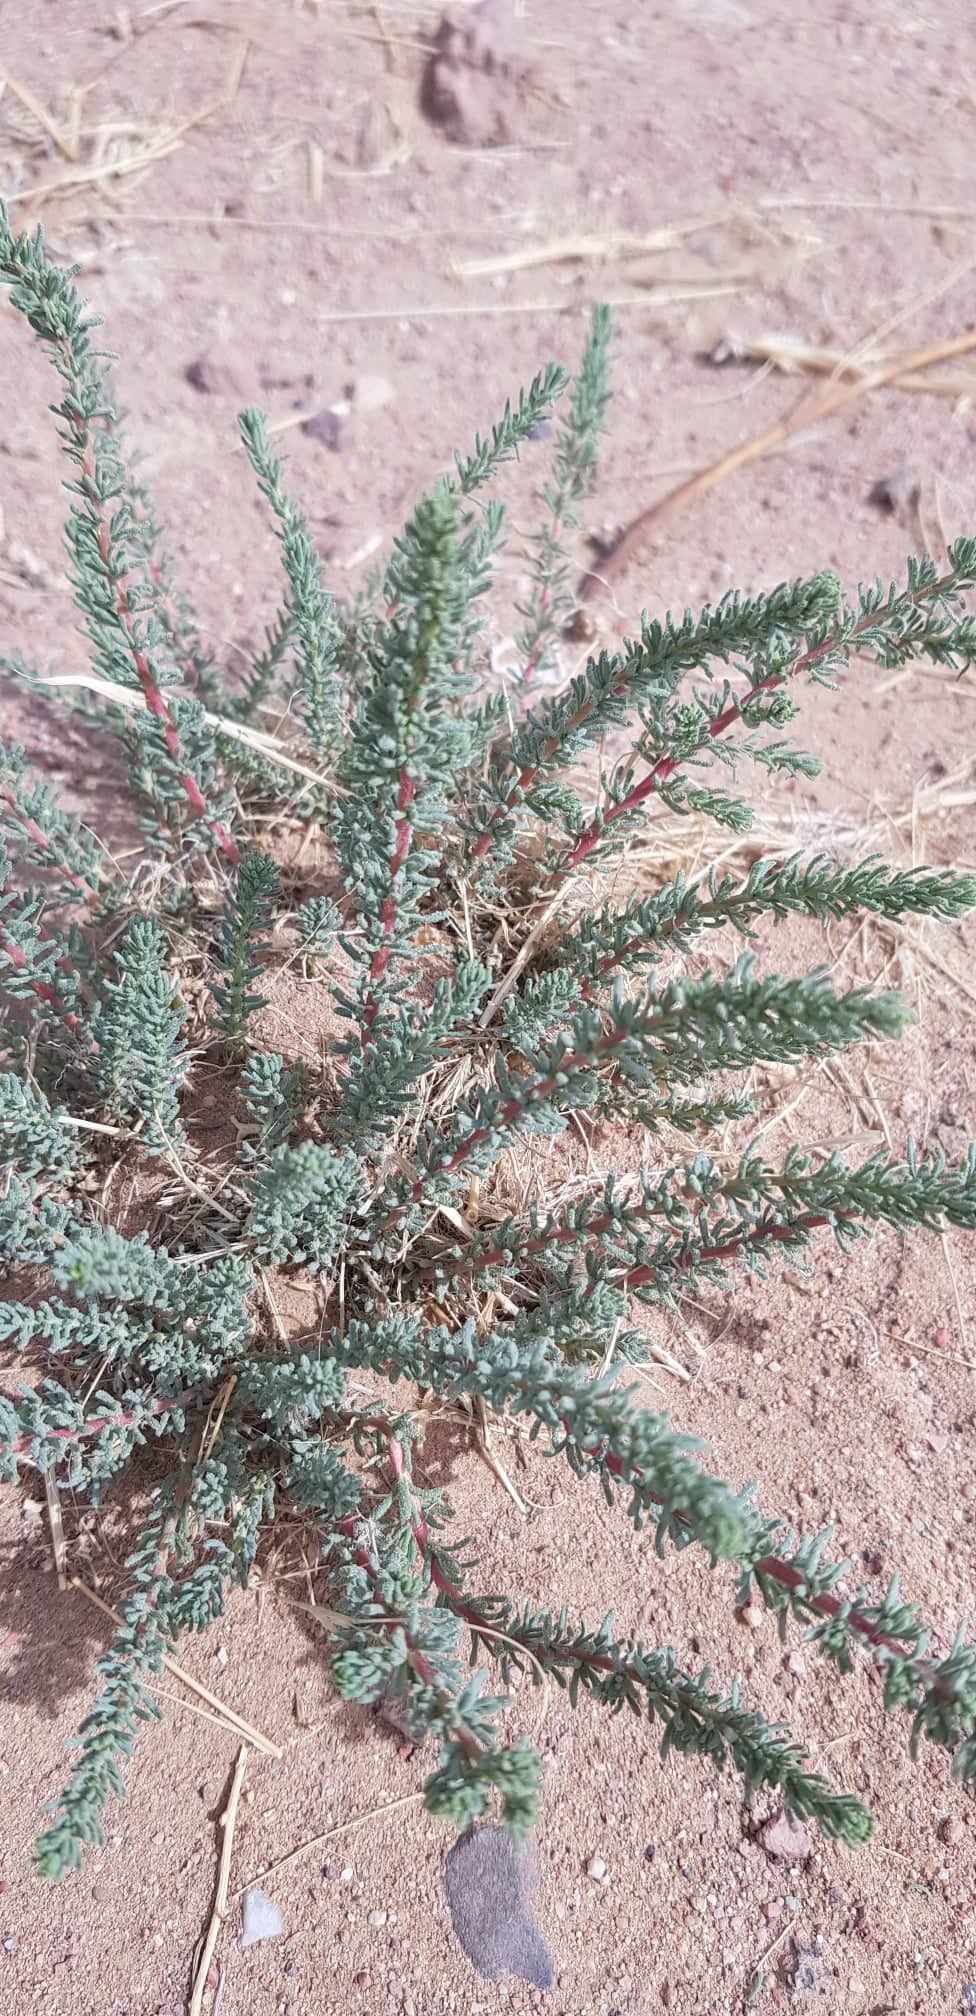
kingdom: Plantae
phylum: Tracheophyta
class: Magnoliopsida
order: Caryophyllales
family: Amaranthaceae
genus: Halogeton
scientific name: Halogeton glomeratus
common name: Saltlover
